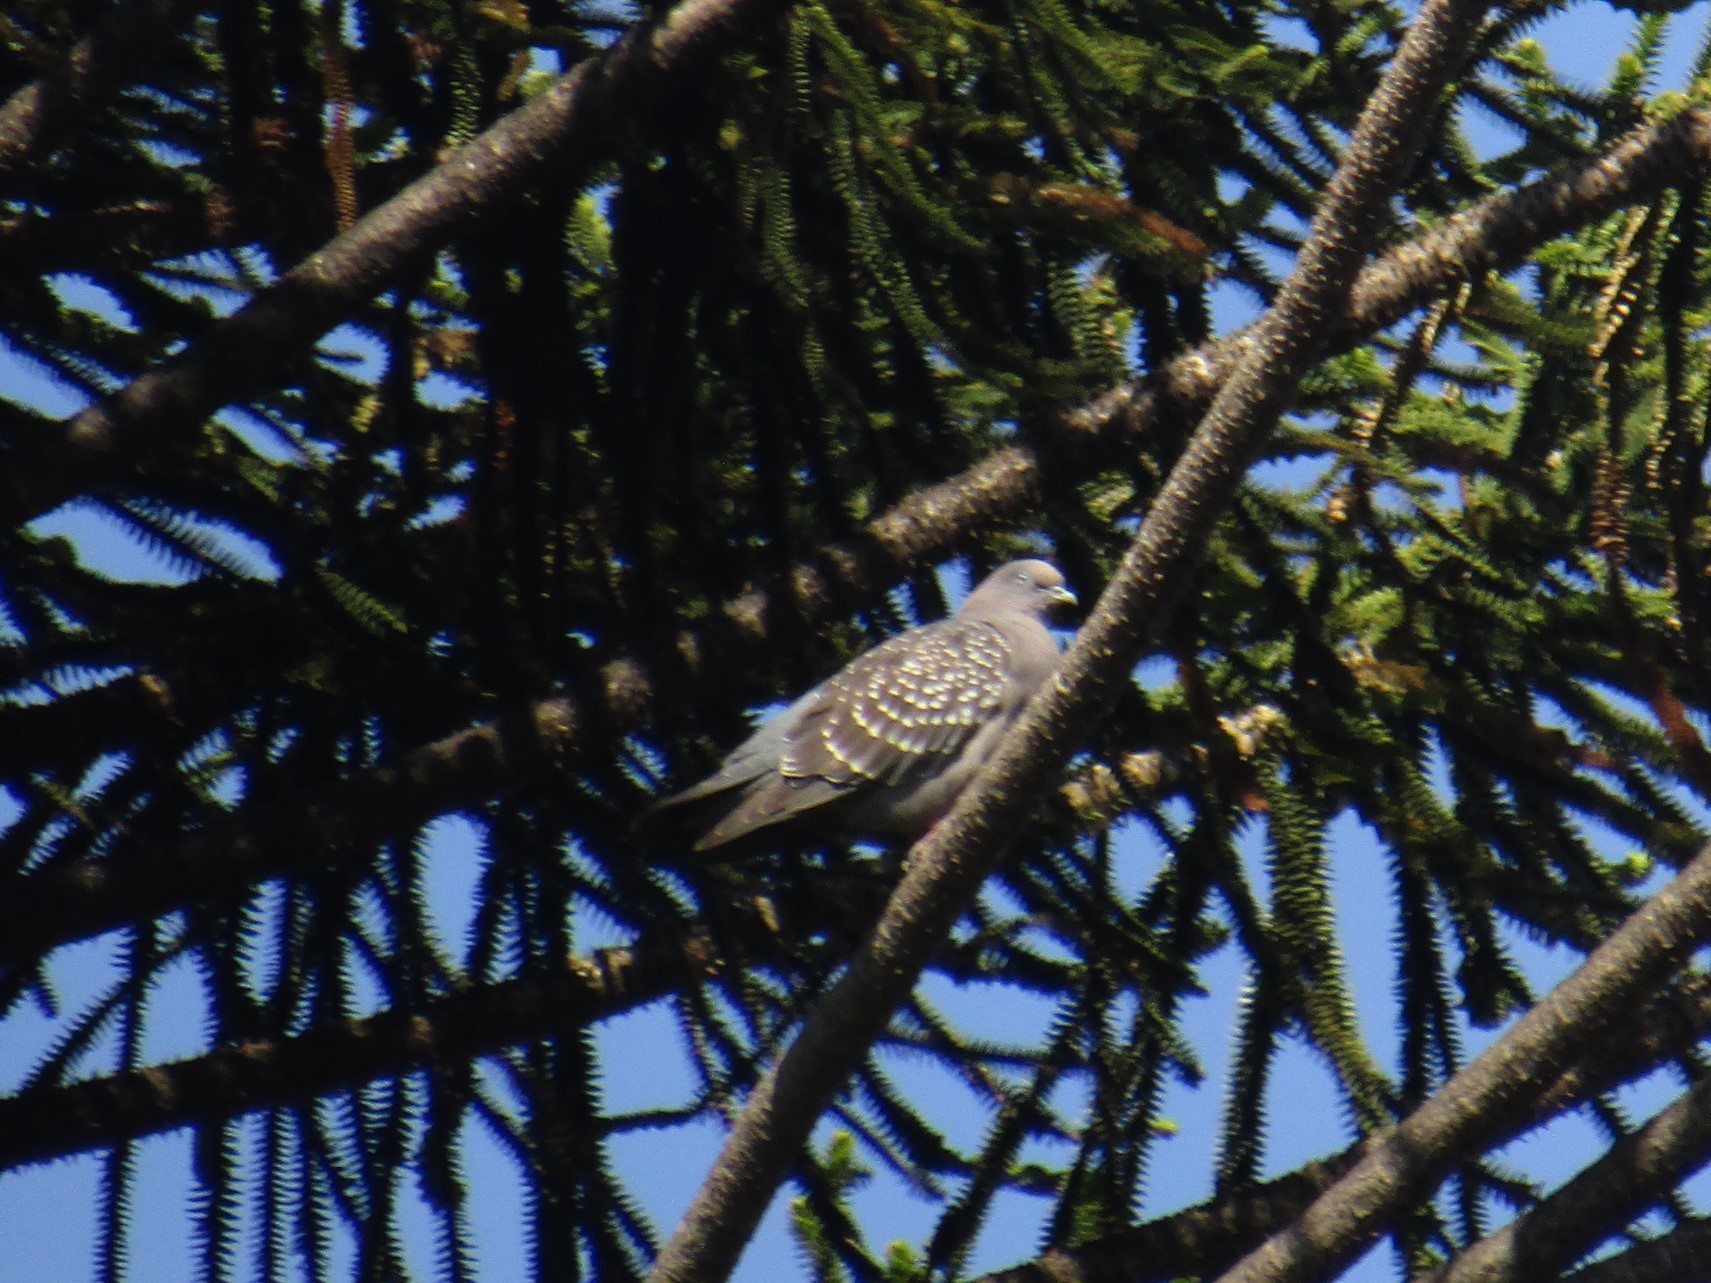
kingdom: Animalia
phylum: Chordata
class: Aves
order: Columbiformes
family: Columbidae
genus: Patagioenas
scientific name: Patagioenas maculosa
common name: Spot-winged pigeon
